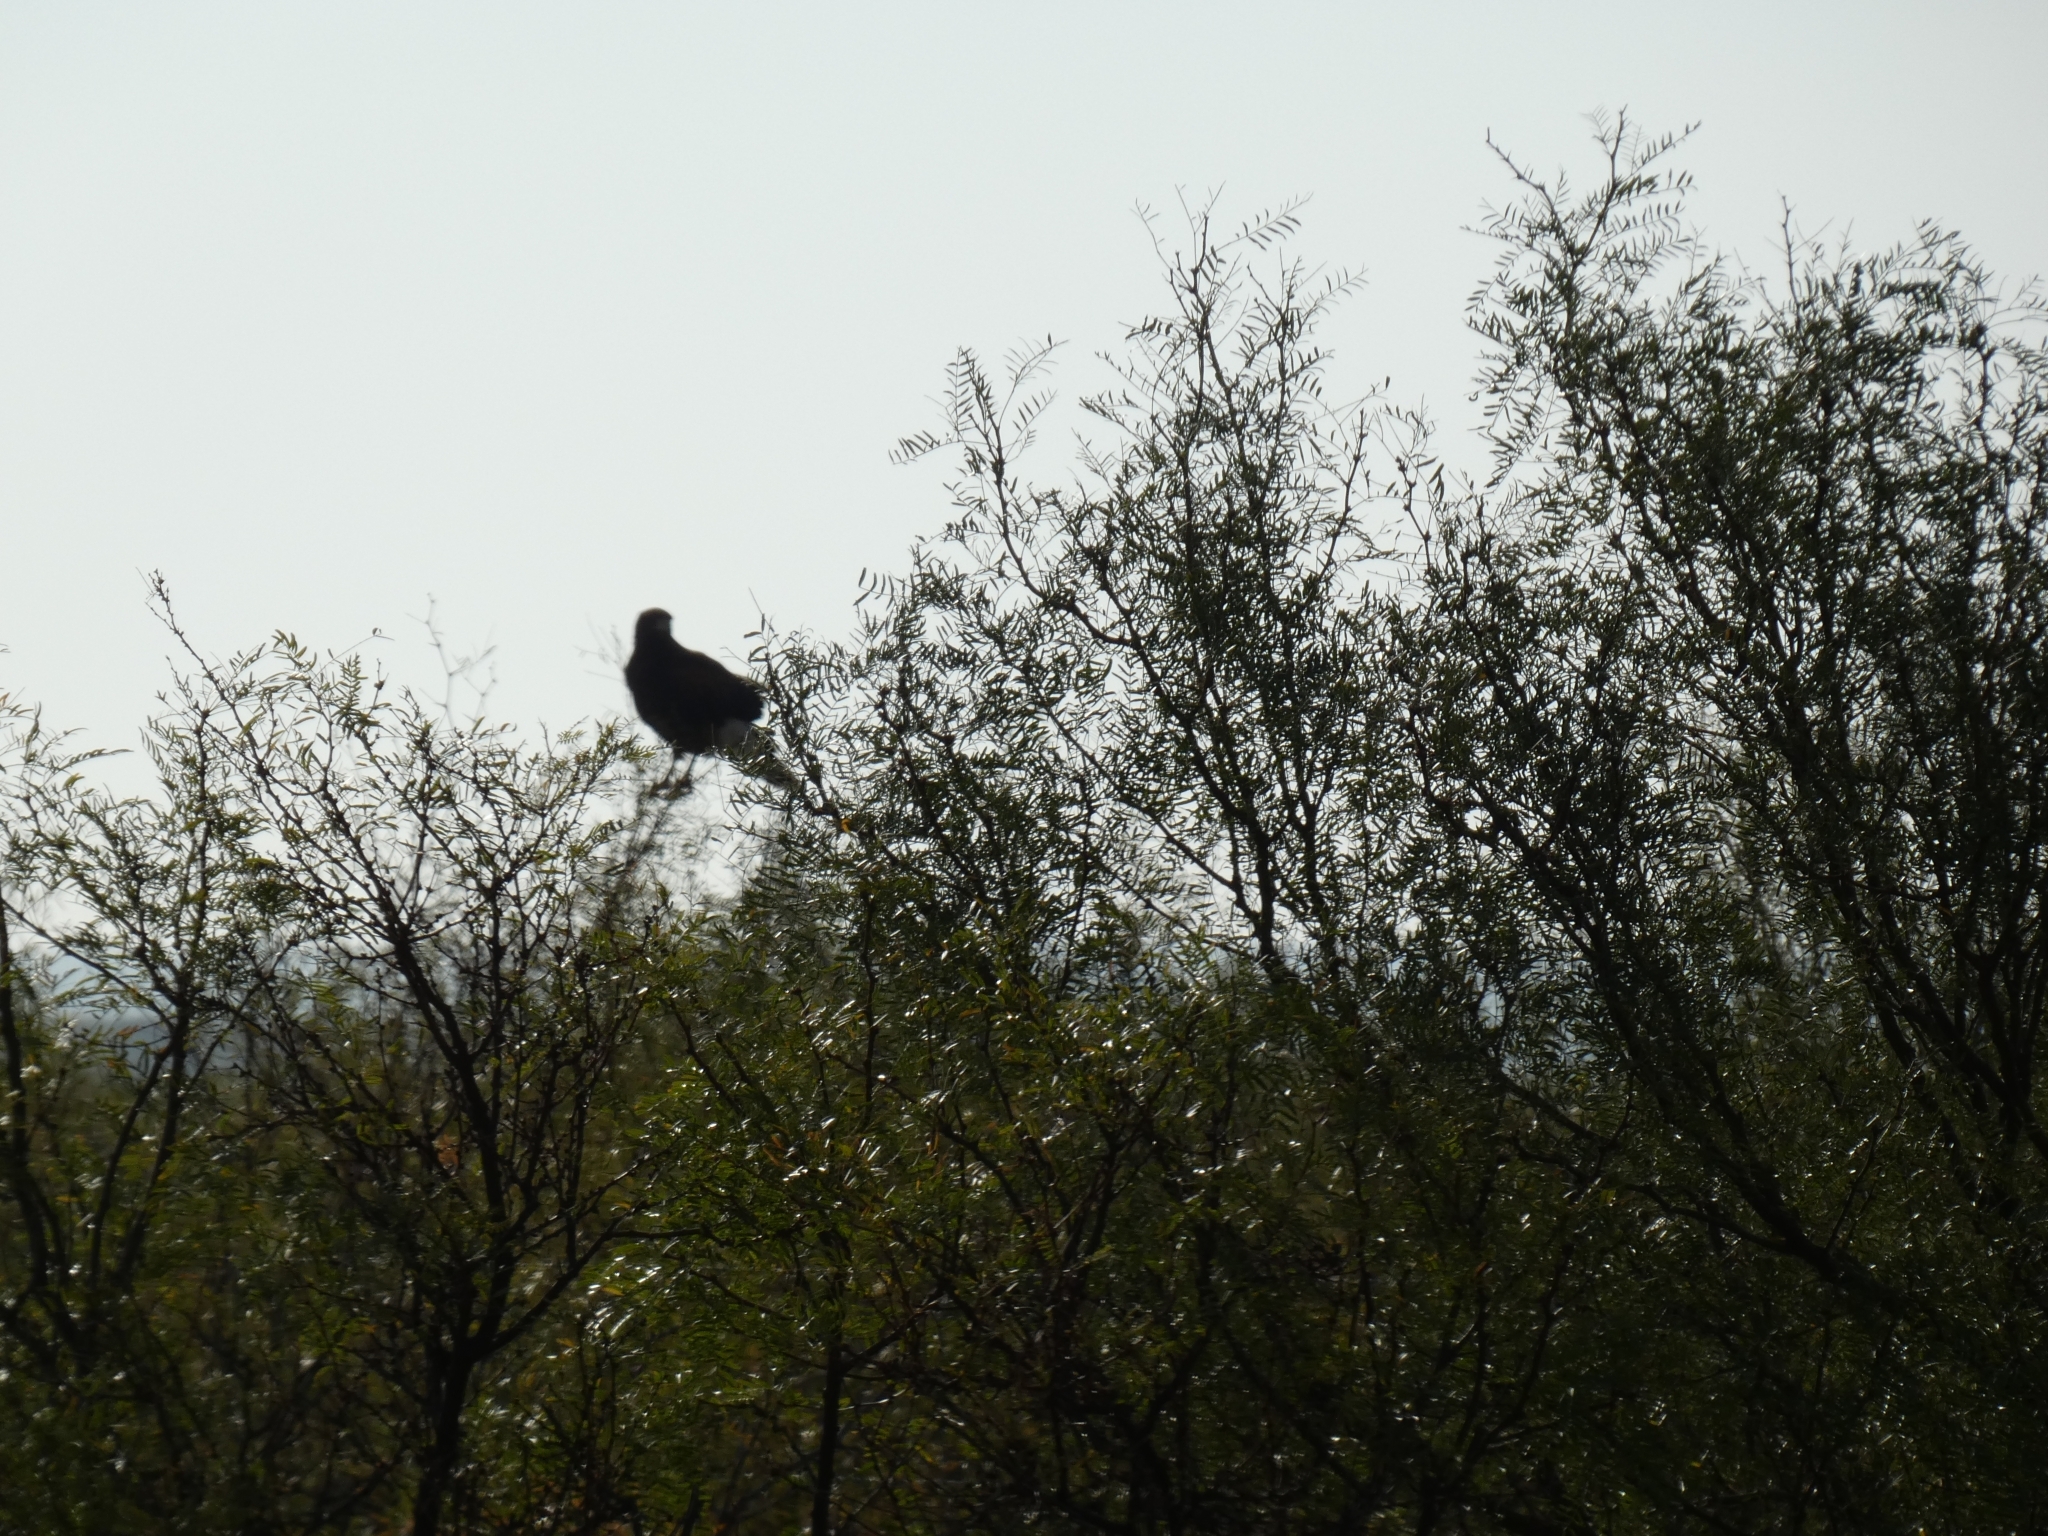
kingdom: Animalia
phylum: Chordata
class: Aves
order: Accipitriformes
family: Accipitridae
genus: Parabuteo
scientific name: Parabuteo unicinctus
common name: Harris's hawk
